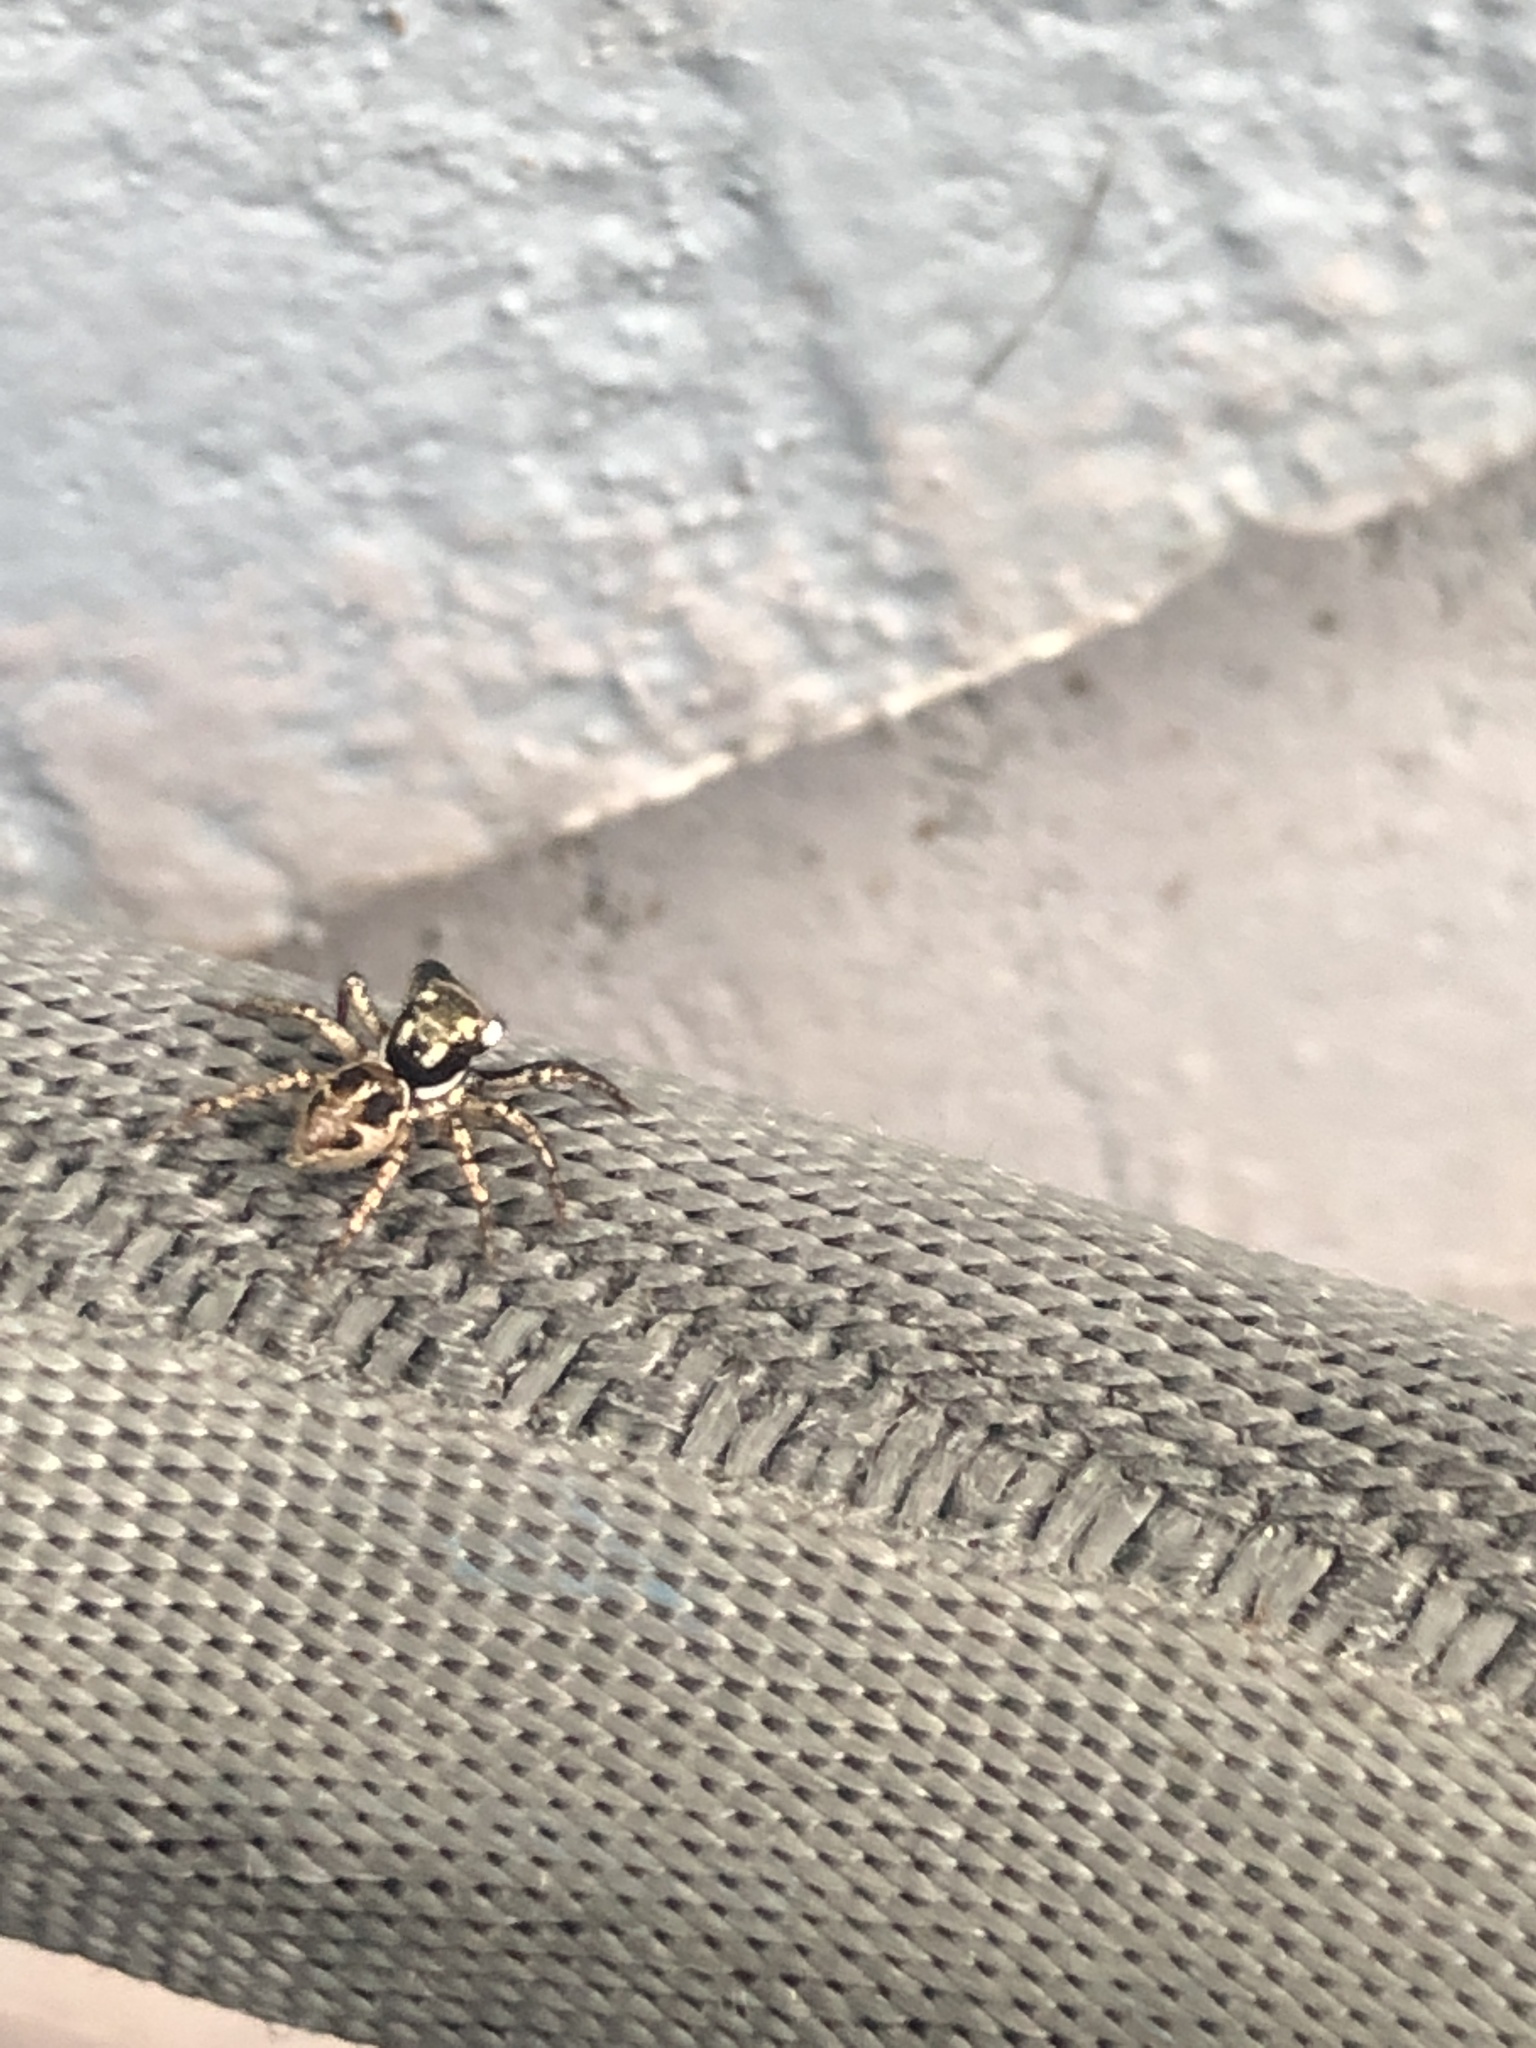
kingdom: Animalia
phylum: Arthropoda
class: Arachnida
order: Araneae
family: Salticidae
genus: Anasaitis
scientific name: Anasaitis canosa
